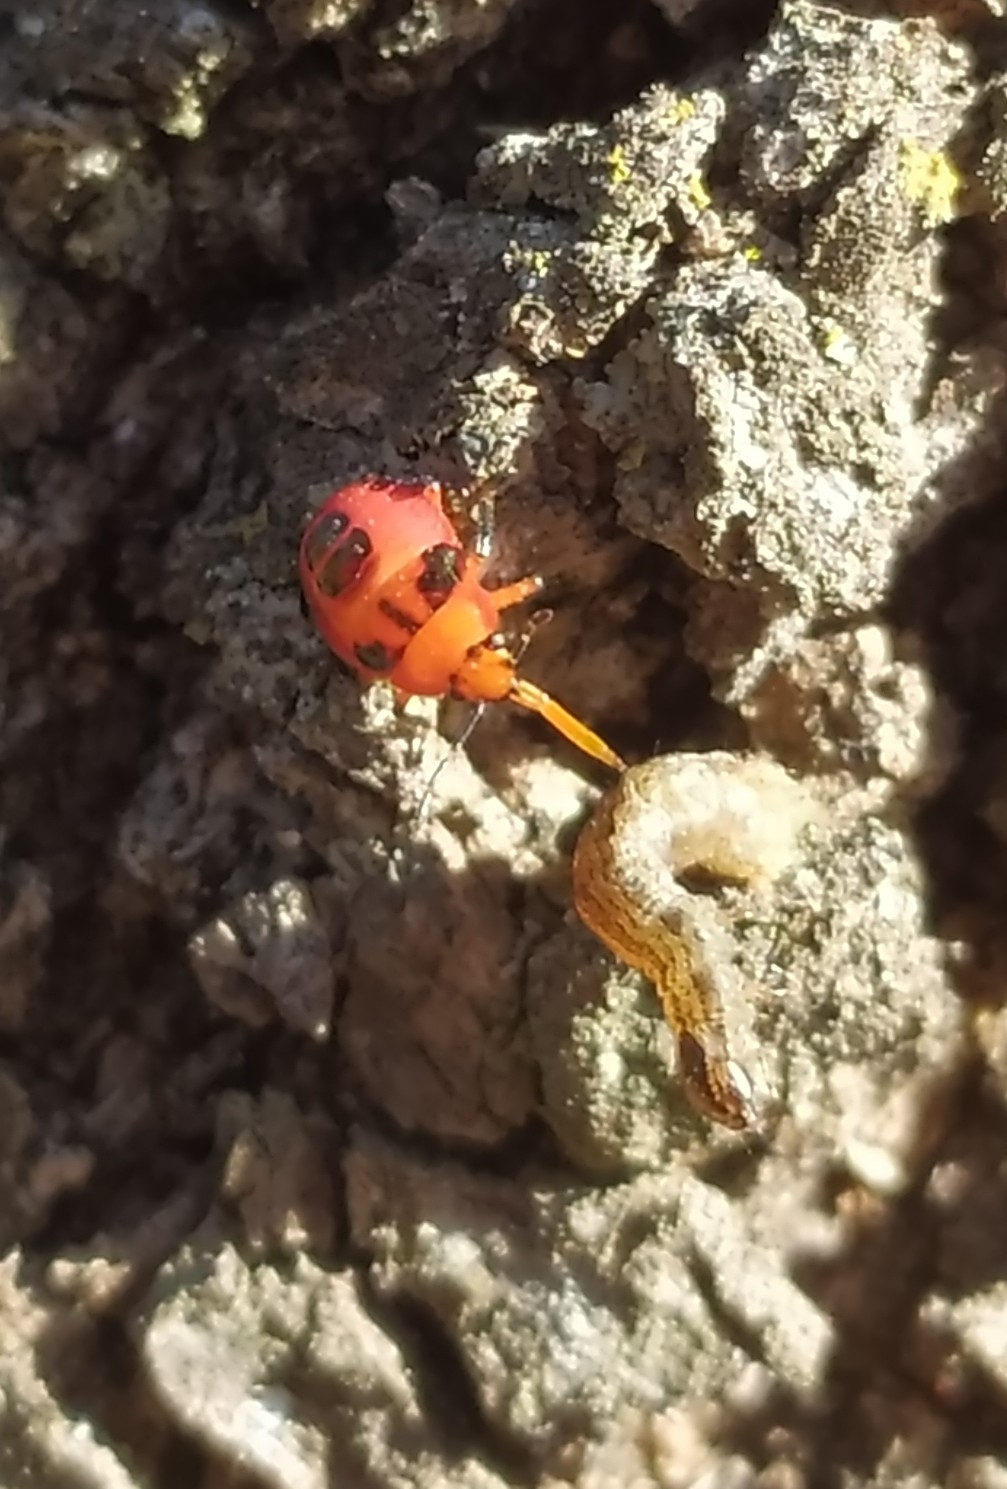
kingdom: Animalia
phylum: Arthropoda
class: Insecta
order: Hemiptera
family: Pentatomidae
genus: Supputius
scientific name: Supputius
